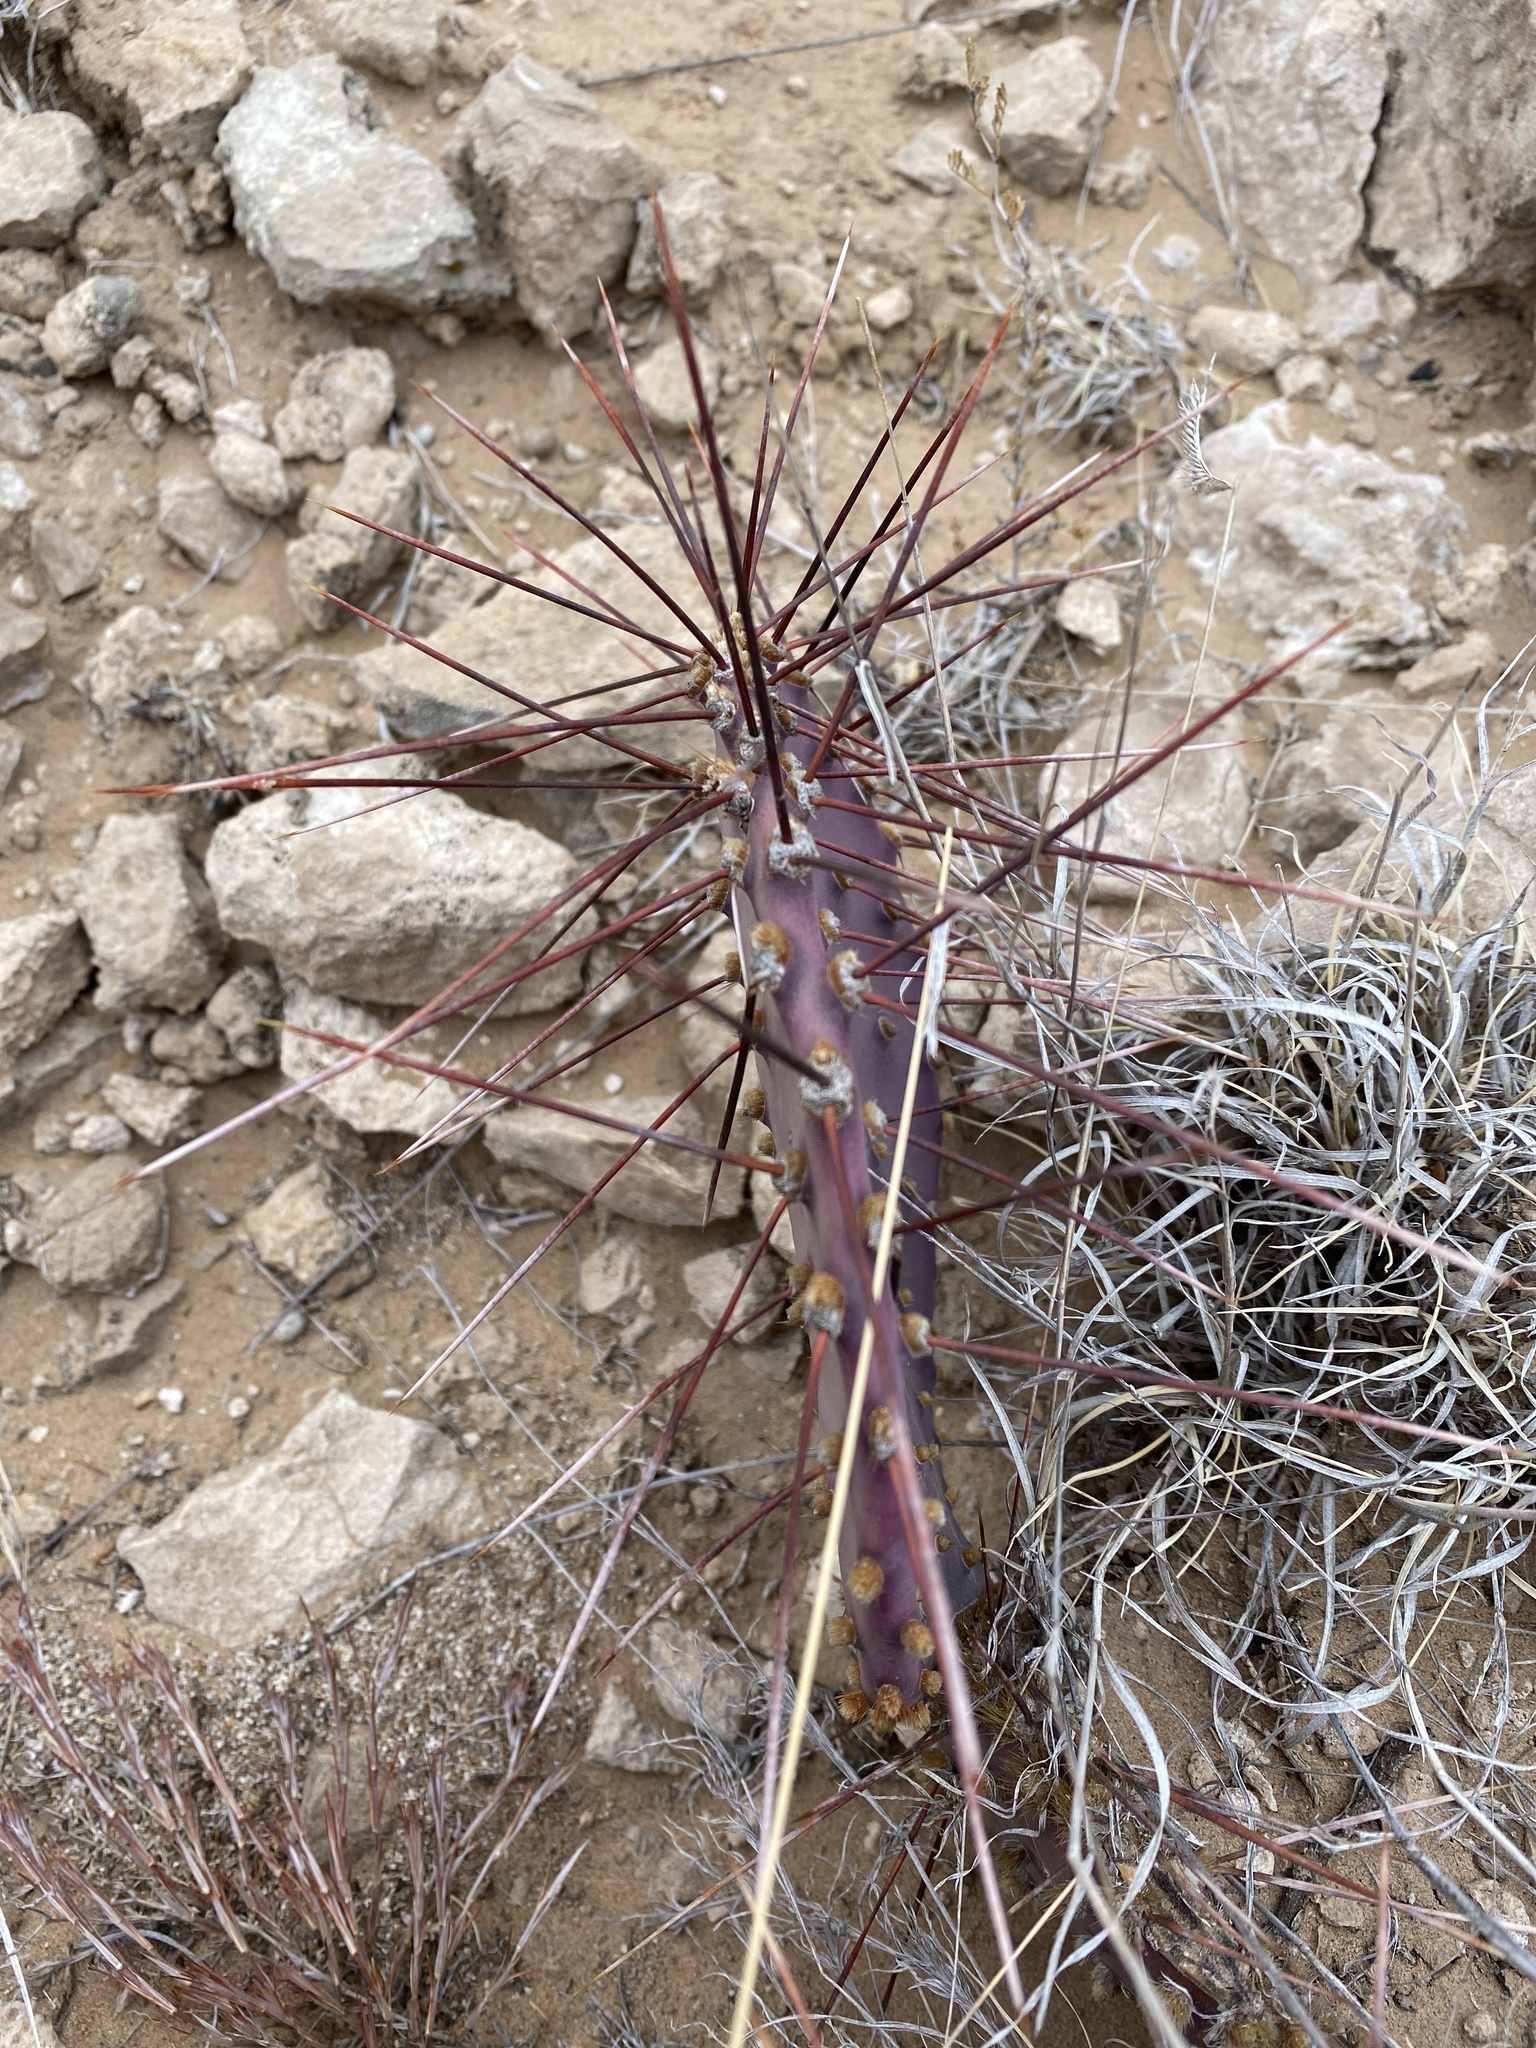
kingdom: Plantae
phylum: Tracheophyta
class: Magnoliopsida
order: Caryophyllales
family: Cactaceae
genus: Opuntia
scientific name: Opuntia macrocentra
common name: Purple prickly-pear
